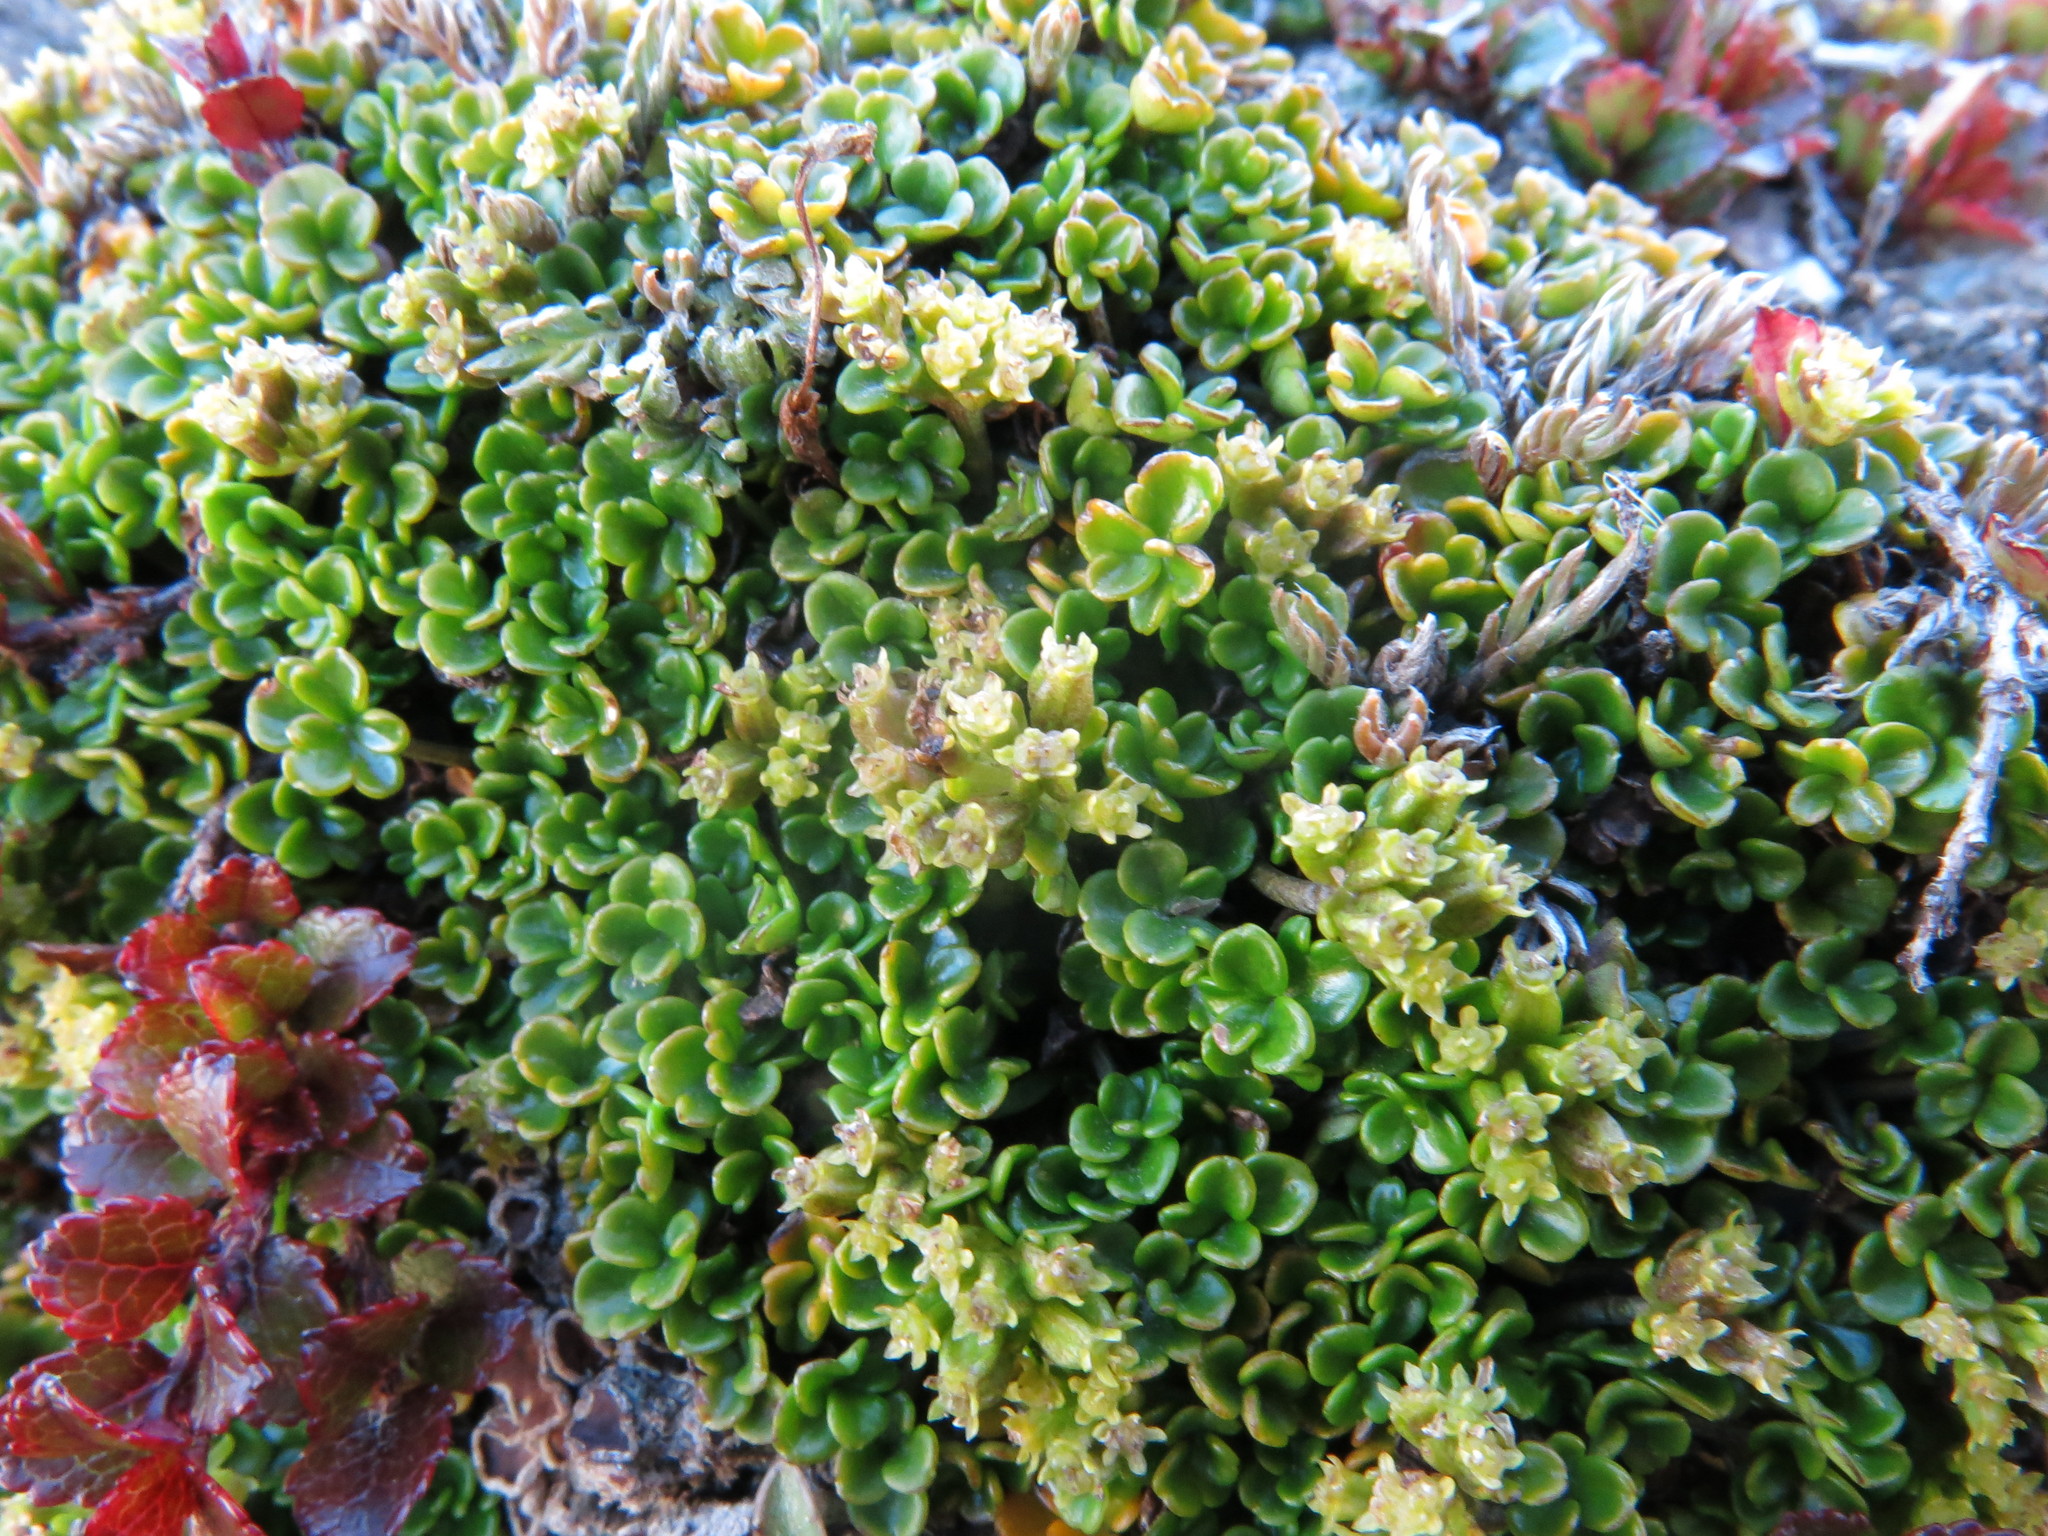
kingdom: Plantae
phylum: Tracheophyta
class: Magnoliopsida
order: Apiales
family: Apiaceae
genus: Azorella
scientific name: Azorella hydrocotyloides
